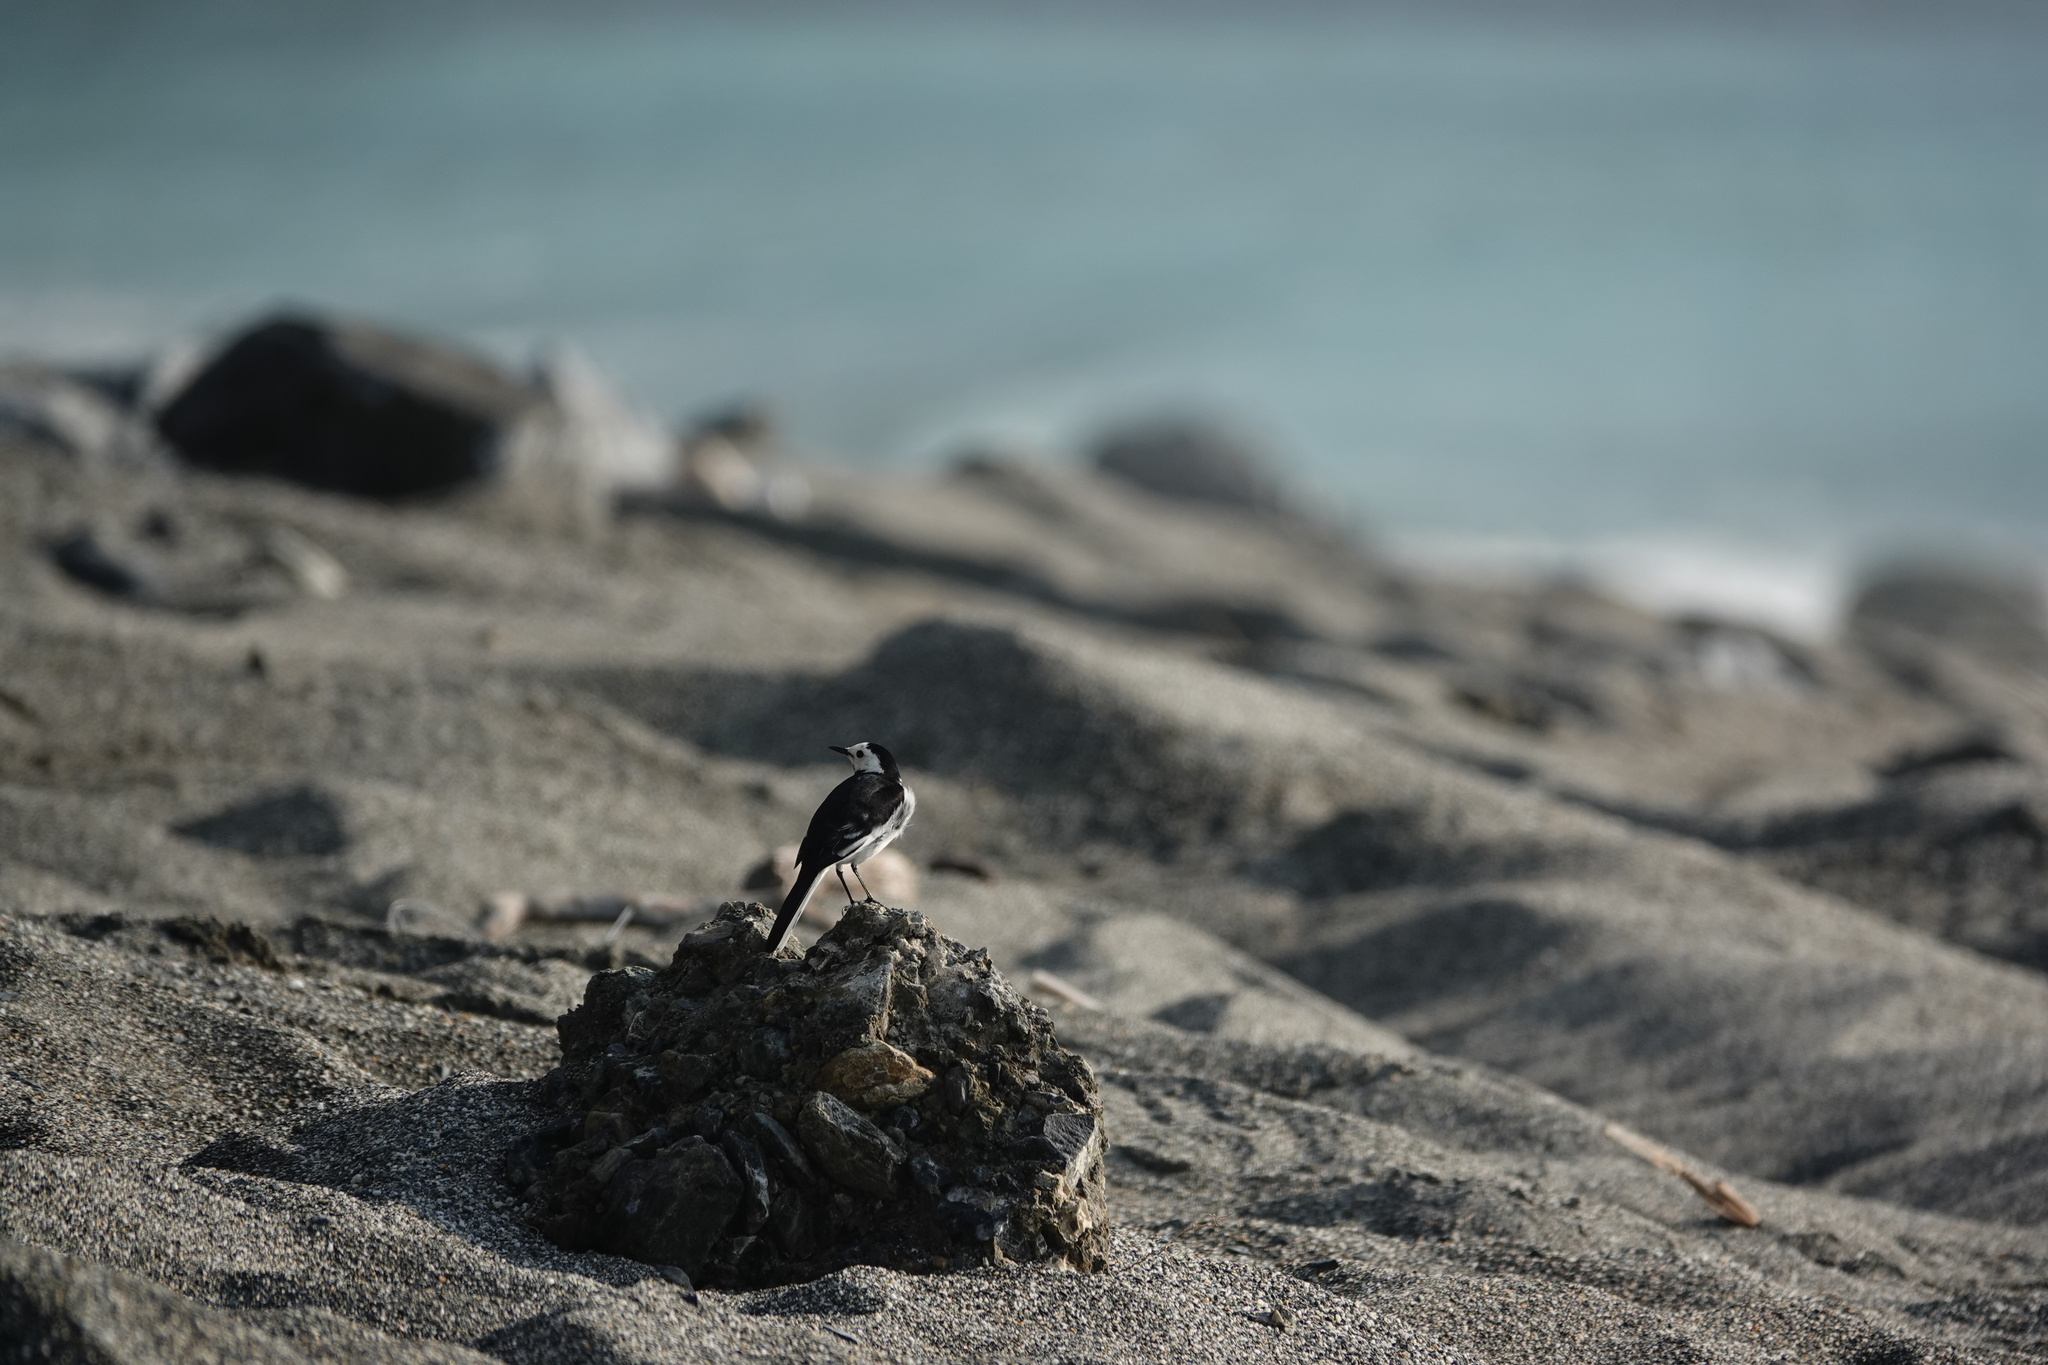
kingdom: Animalia
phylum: Chordata
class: Aves
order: Passeriformes
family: Motacillidae
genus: Motacilla
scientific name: Motacilla alba
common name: White wagtail
